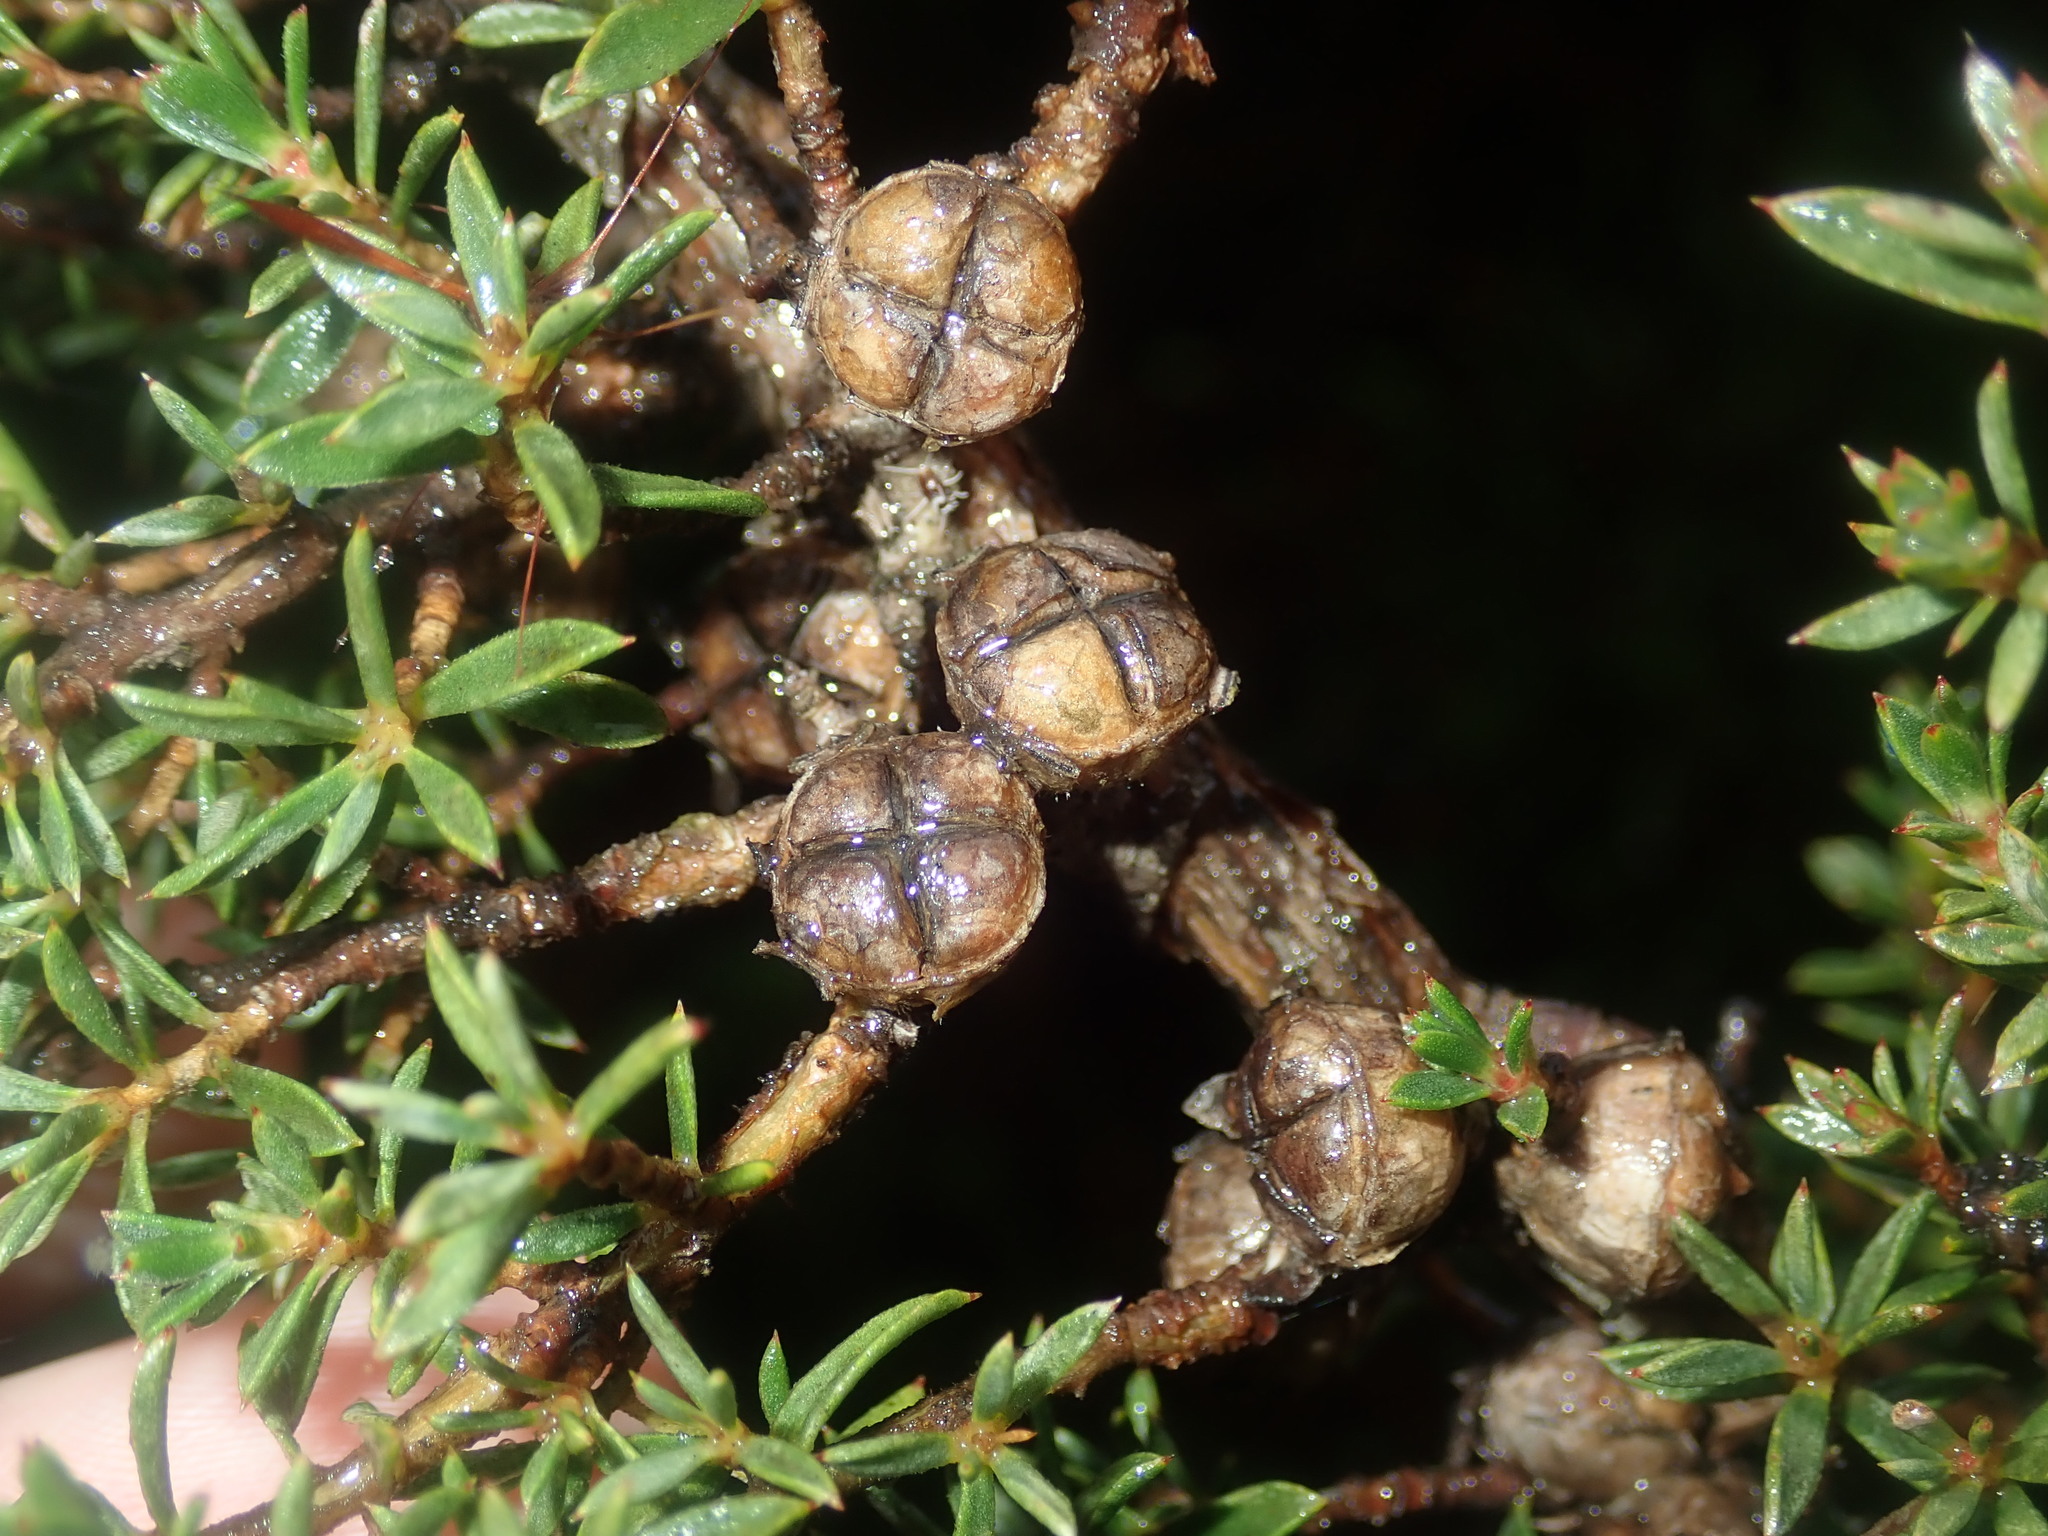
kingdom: Plantae
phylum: Tracheophyta
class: Magnoliopsida
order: Myrtales
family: Myrtaceae
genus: Leptospermum
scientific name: Leptospermum arachnoides
